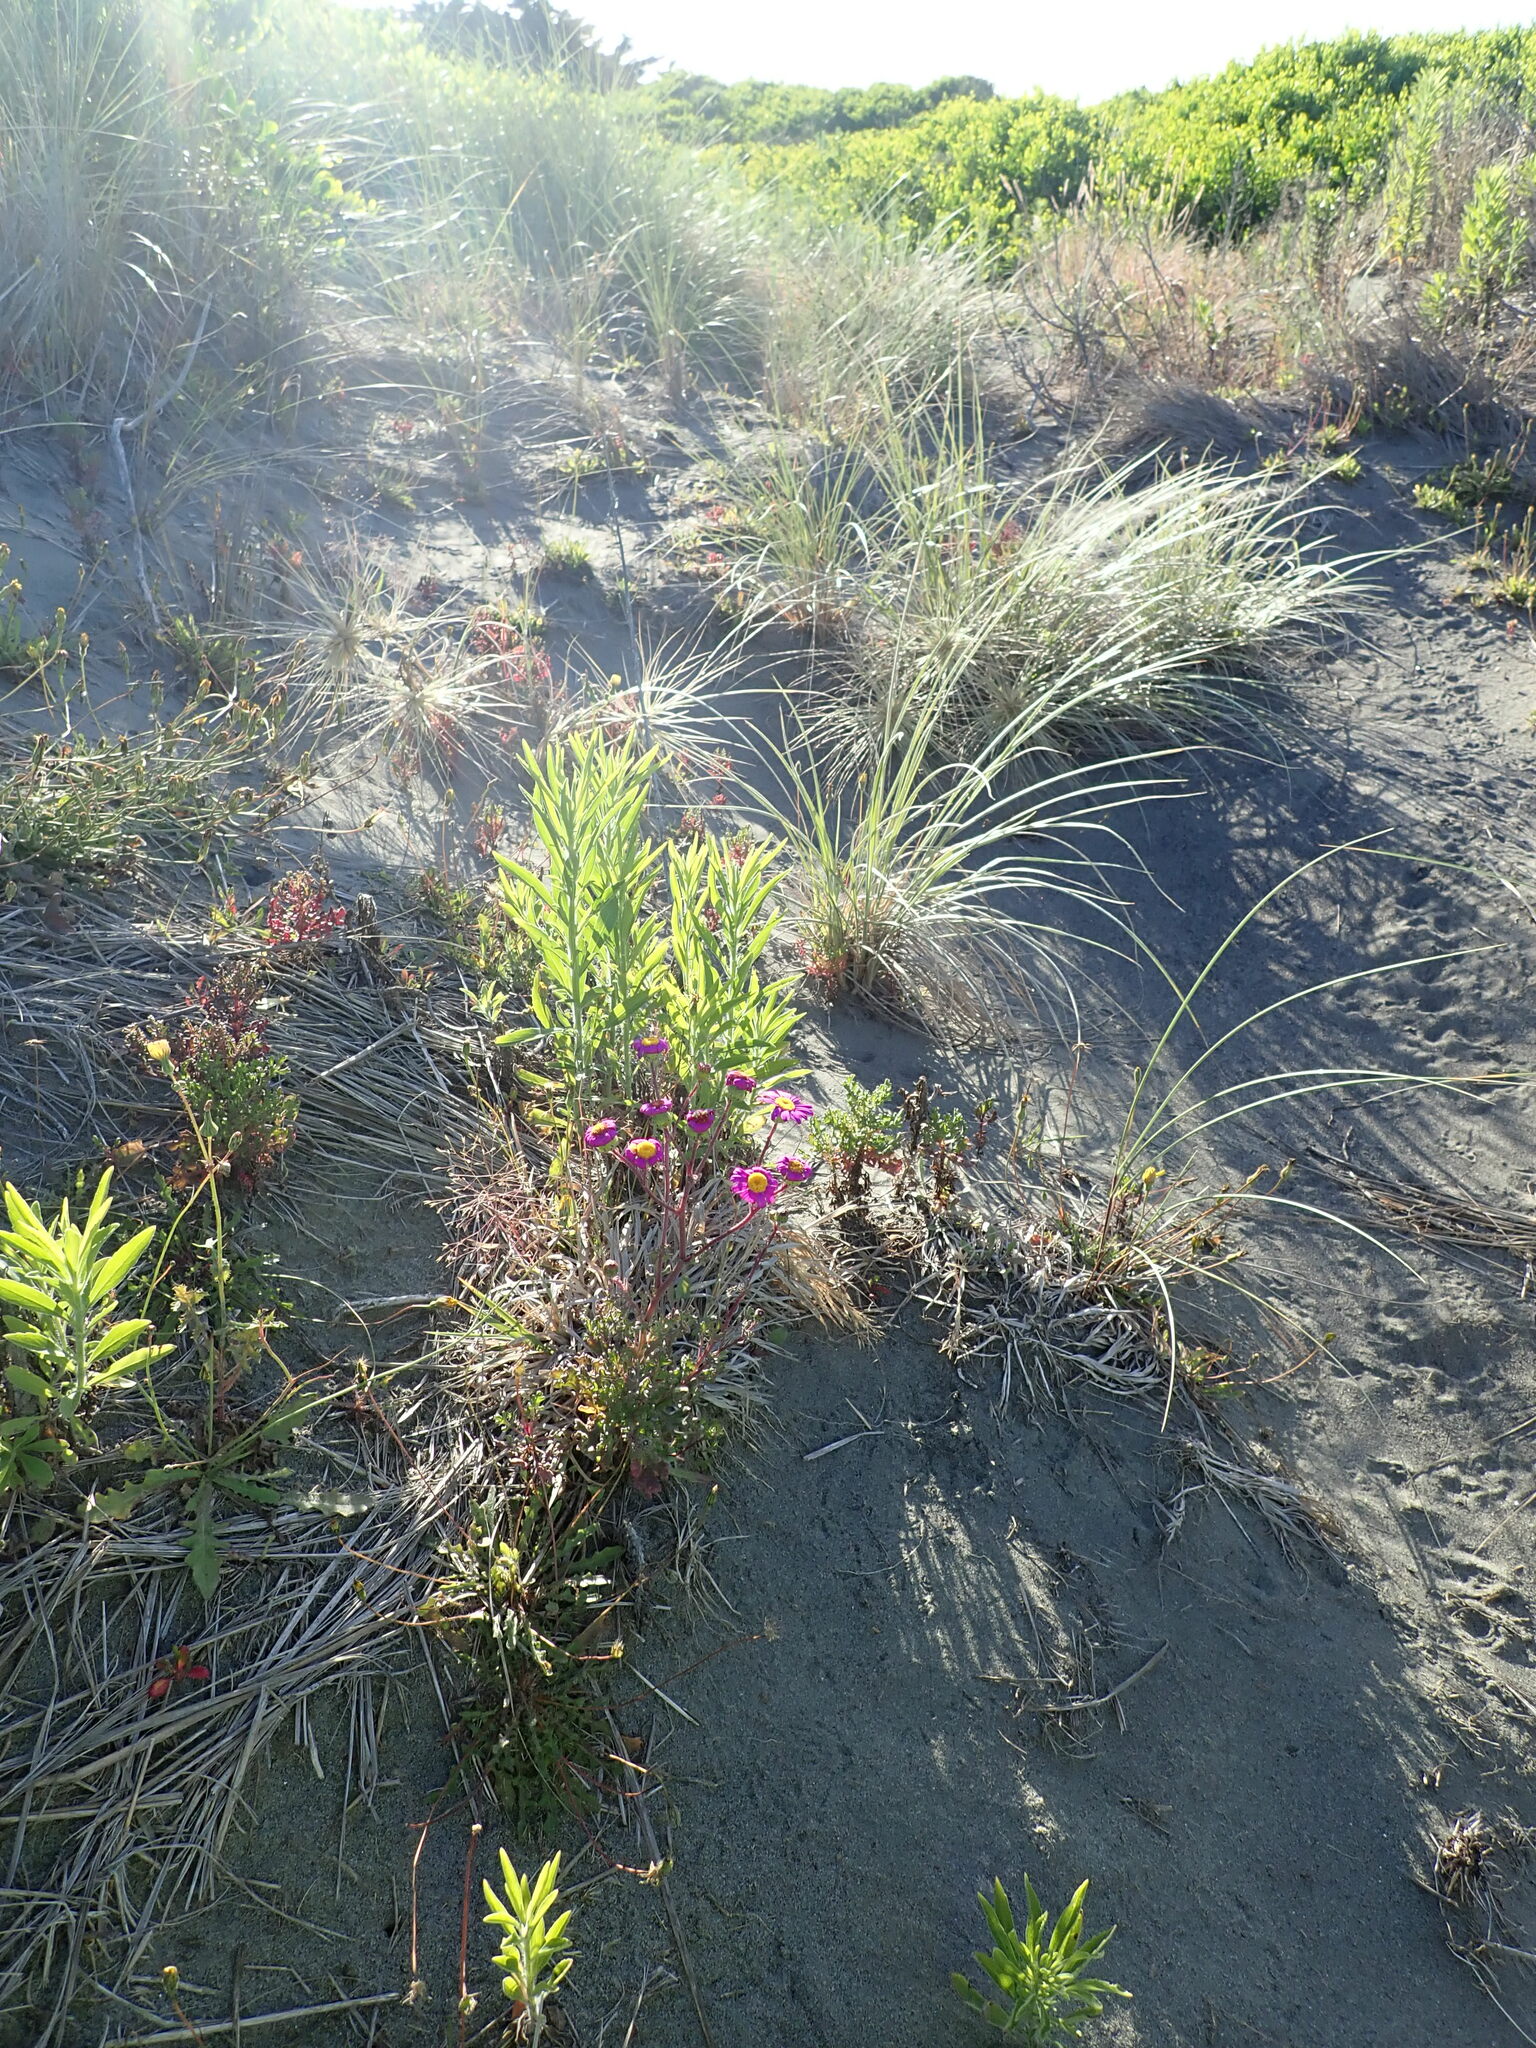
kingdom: Plantae
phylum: Tracheophyta
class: Magnoliopsida
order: Asterales
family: Asteraceae
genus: Senecio
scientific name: Senecio elegans
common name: Purple groundsel
